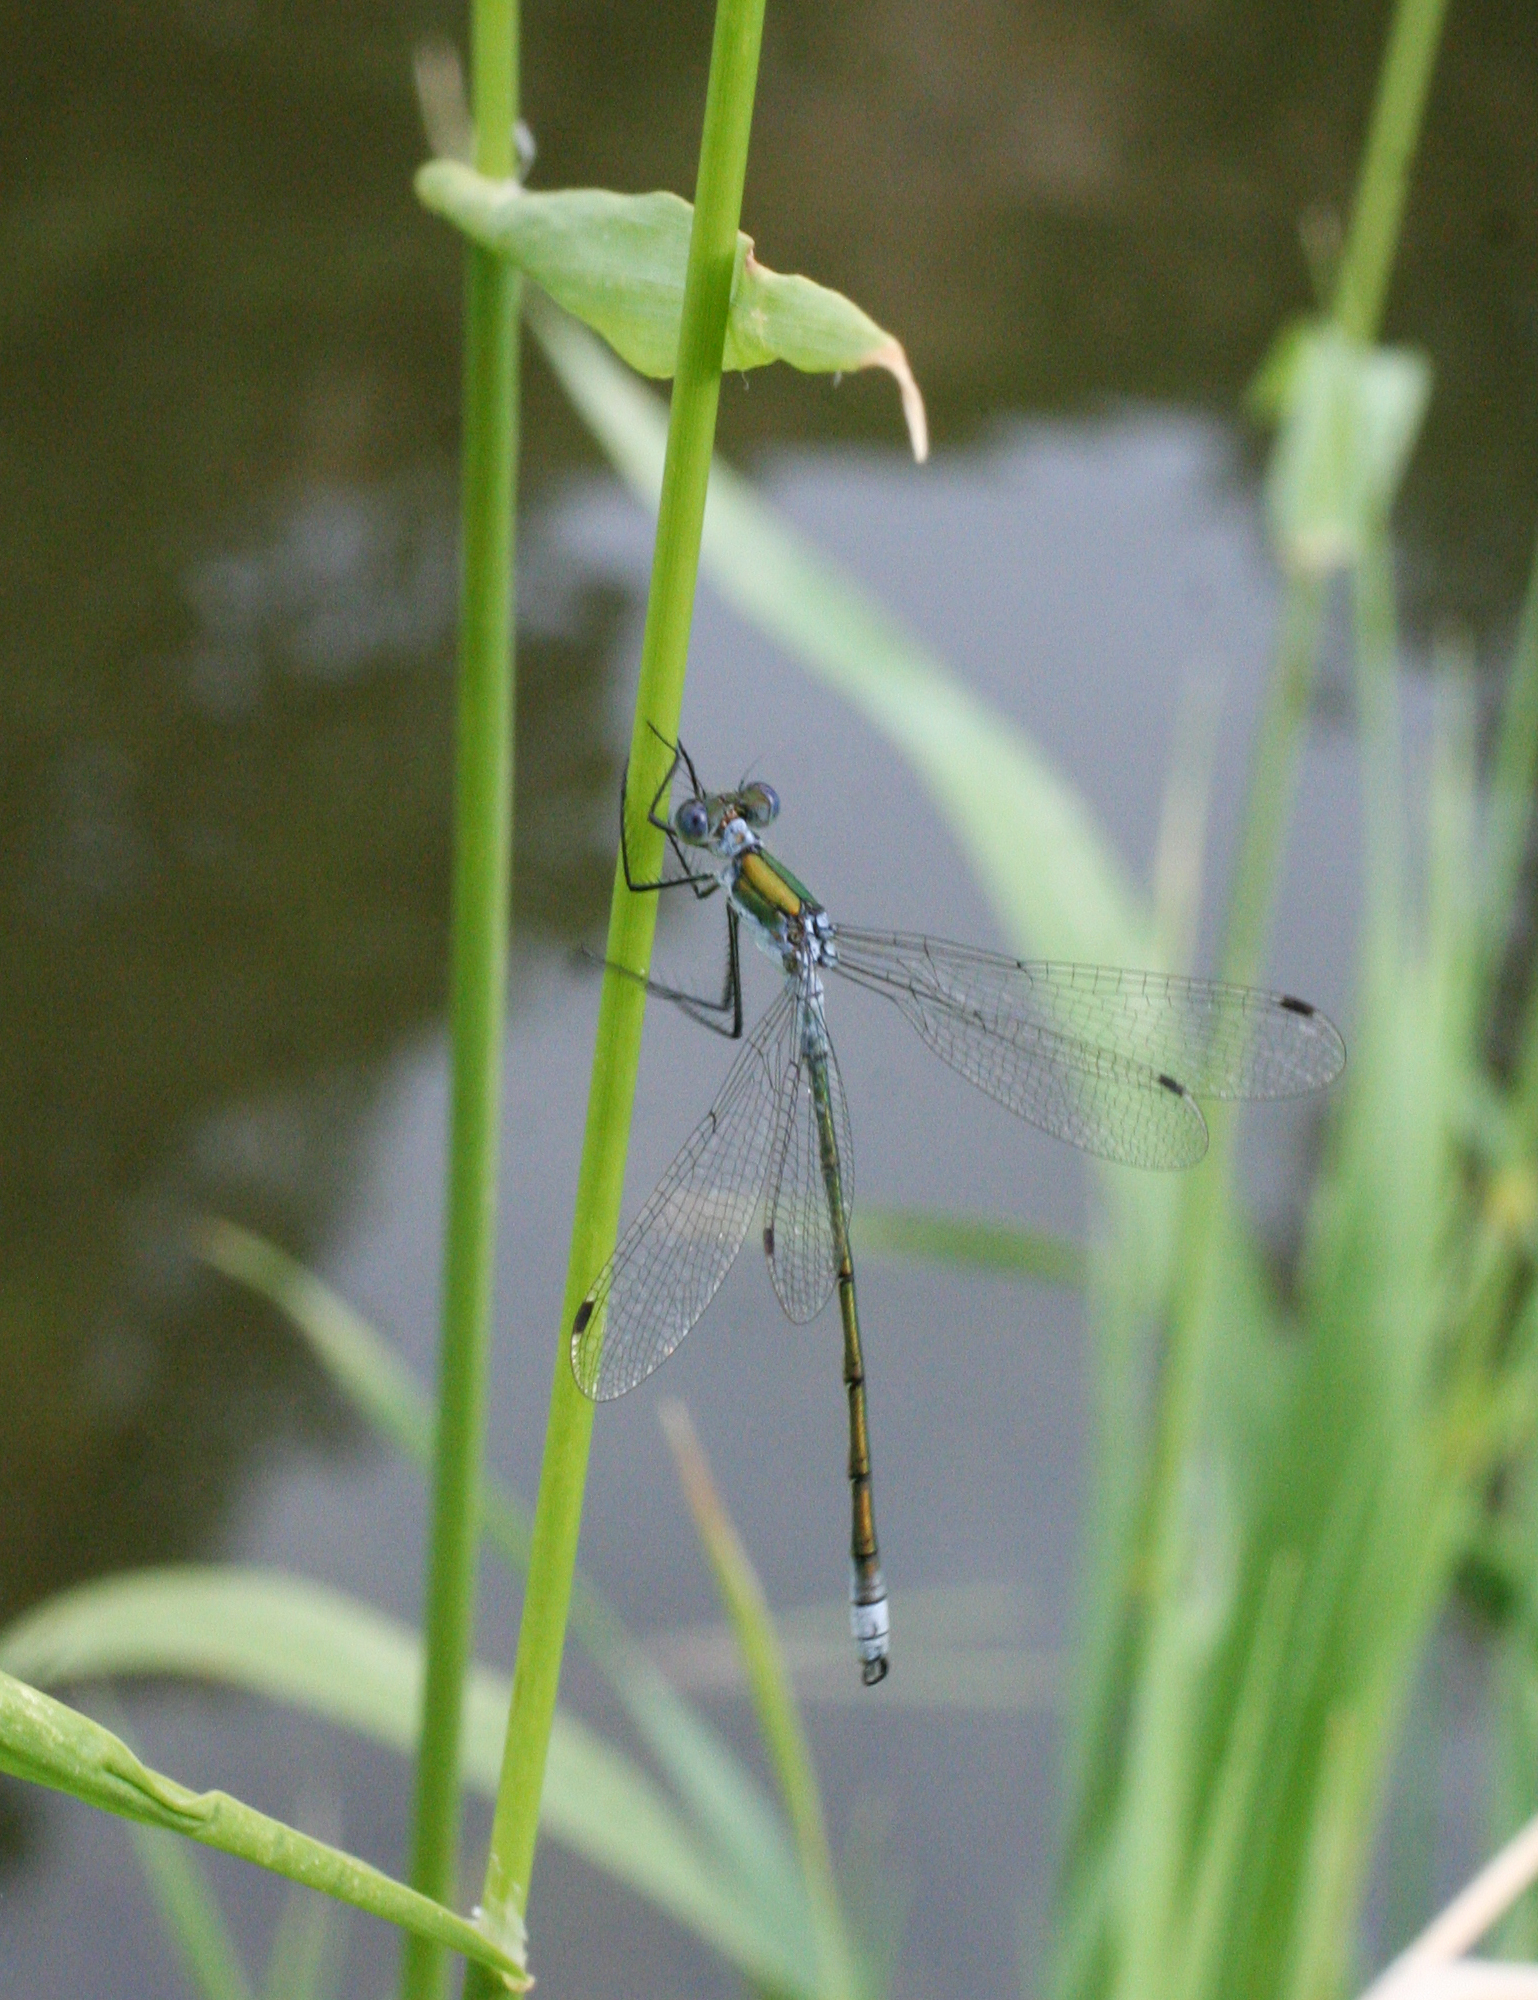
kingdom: Animalia
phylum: Arthropoda
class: Insecta
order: Odonata
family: Lestidae
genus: Lestes
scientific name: Lestes sponsa
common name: Common spreadwing
